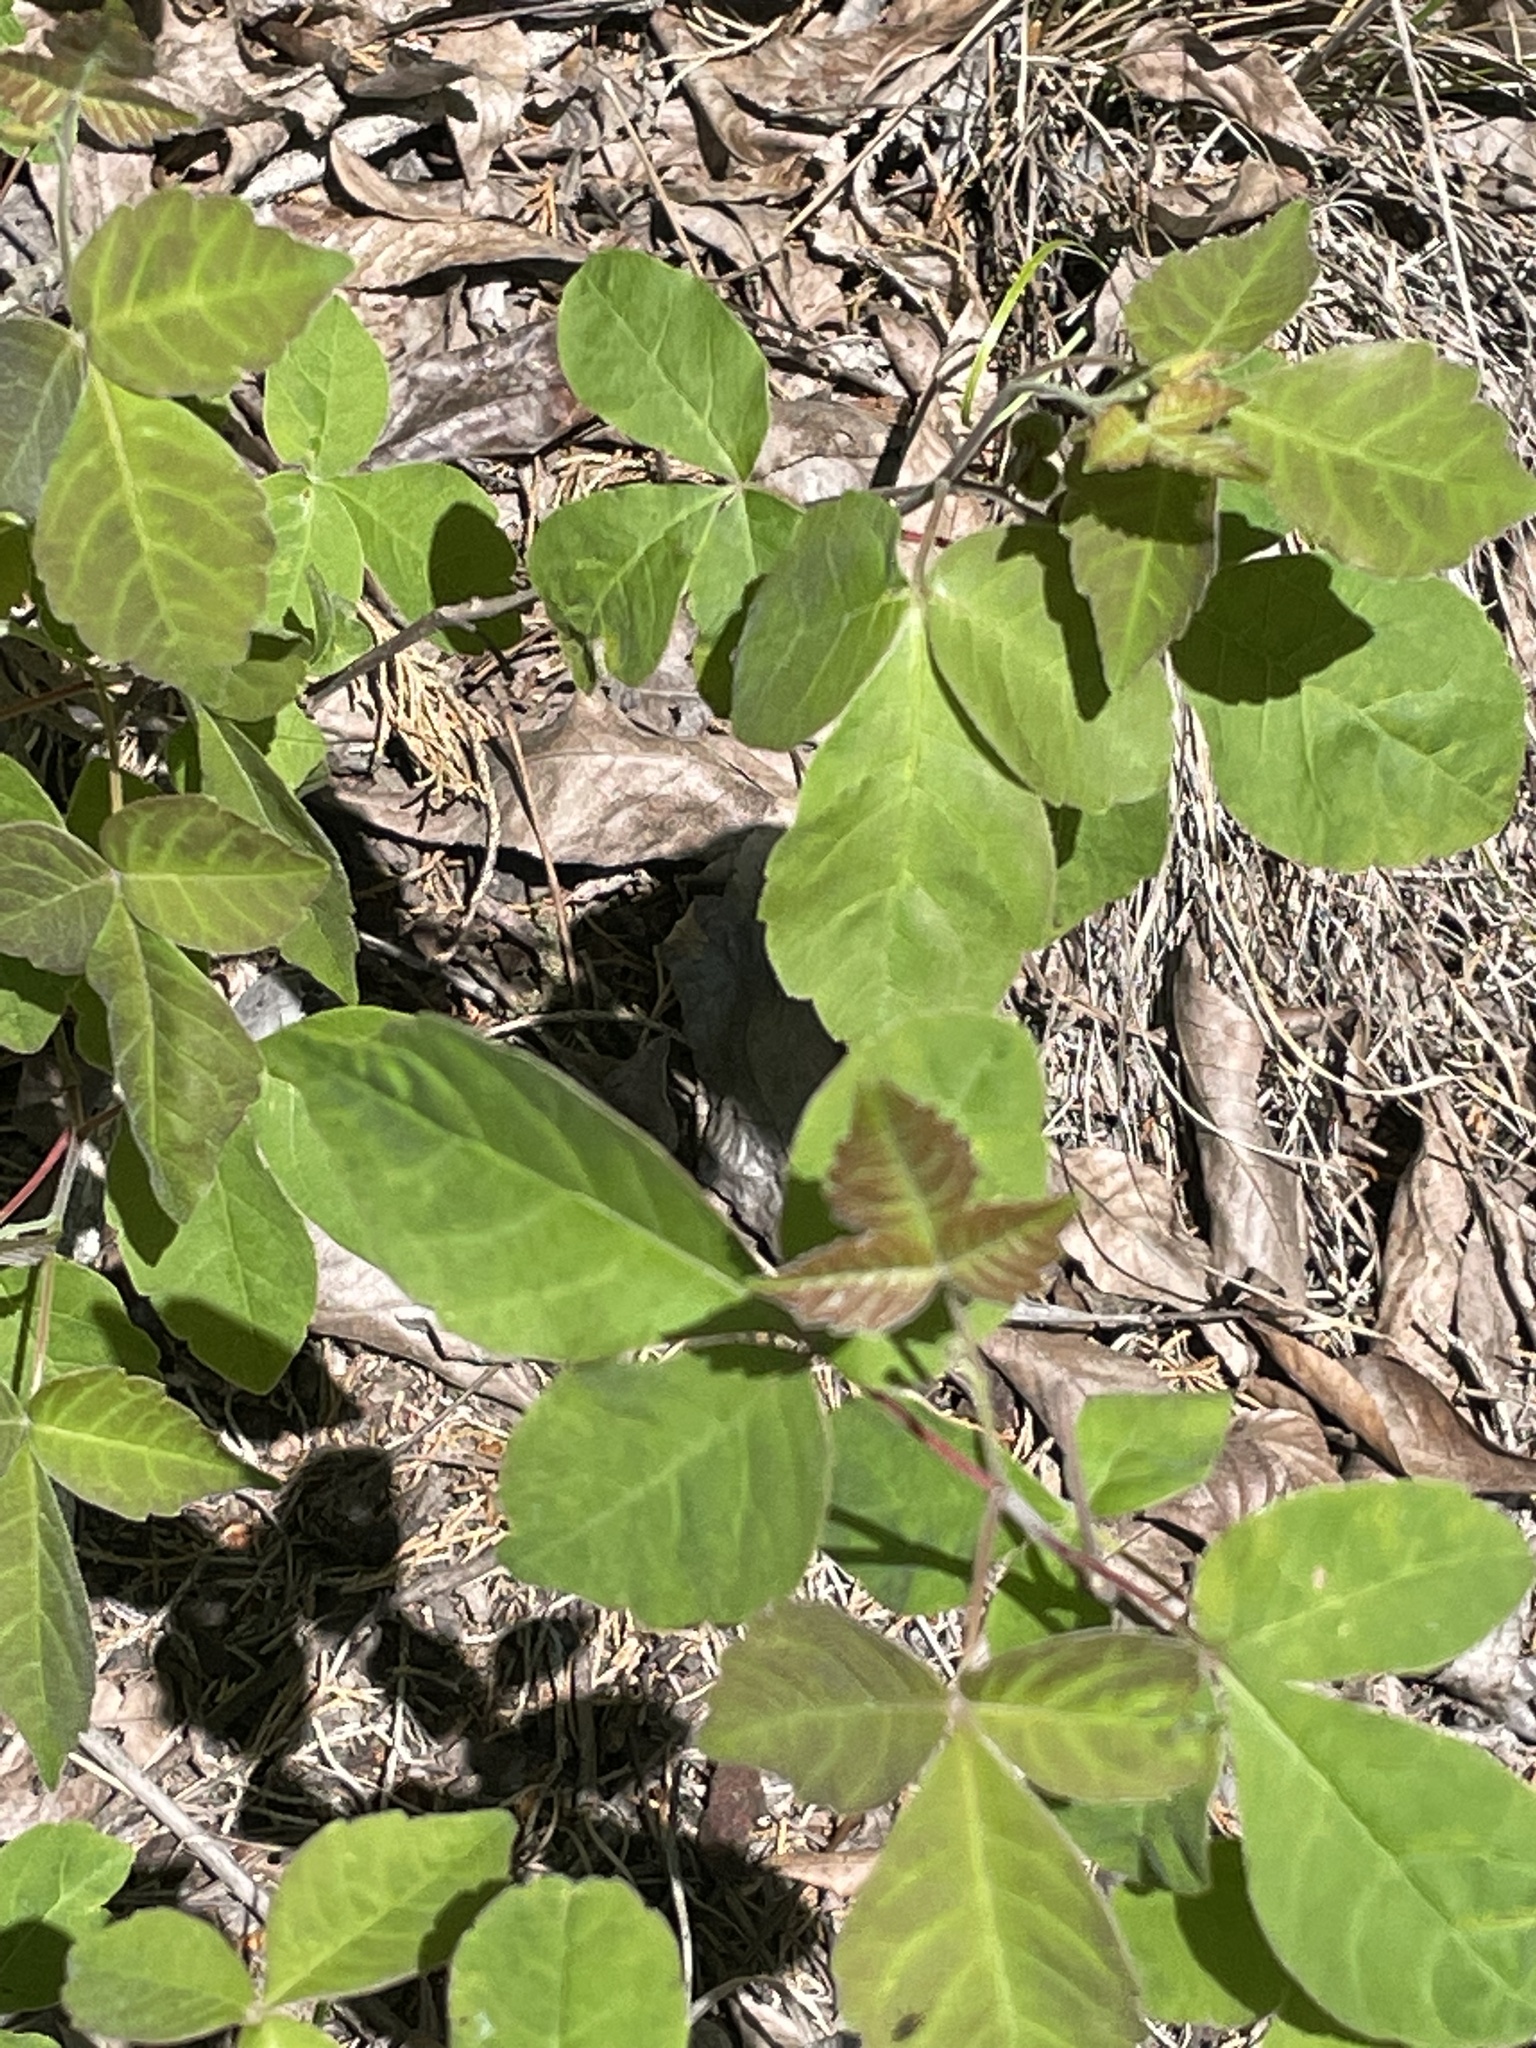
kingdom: Plantae
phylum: Tracheophyta
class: Magnoliopsida
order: Sapindales
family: Anacardiaceae
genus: Rhus
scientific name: Rhus aromatica
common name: Aromatic sumac
